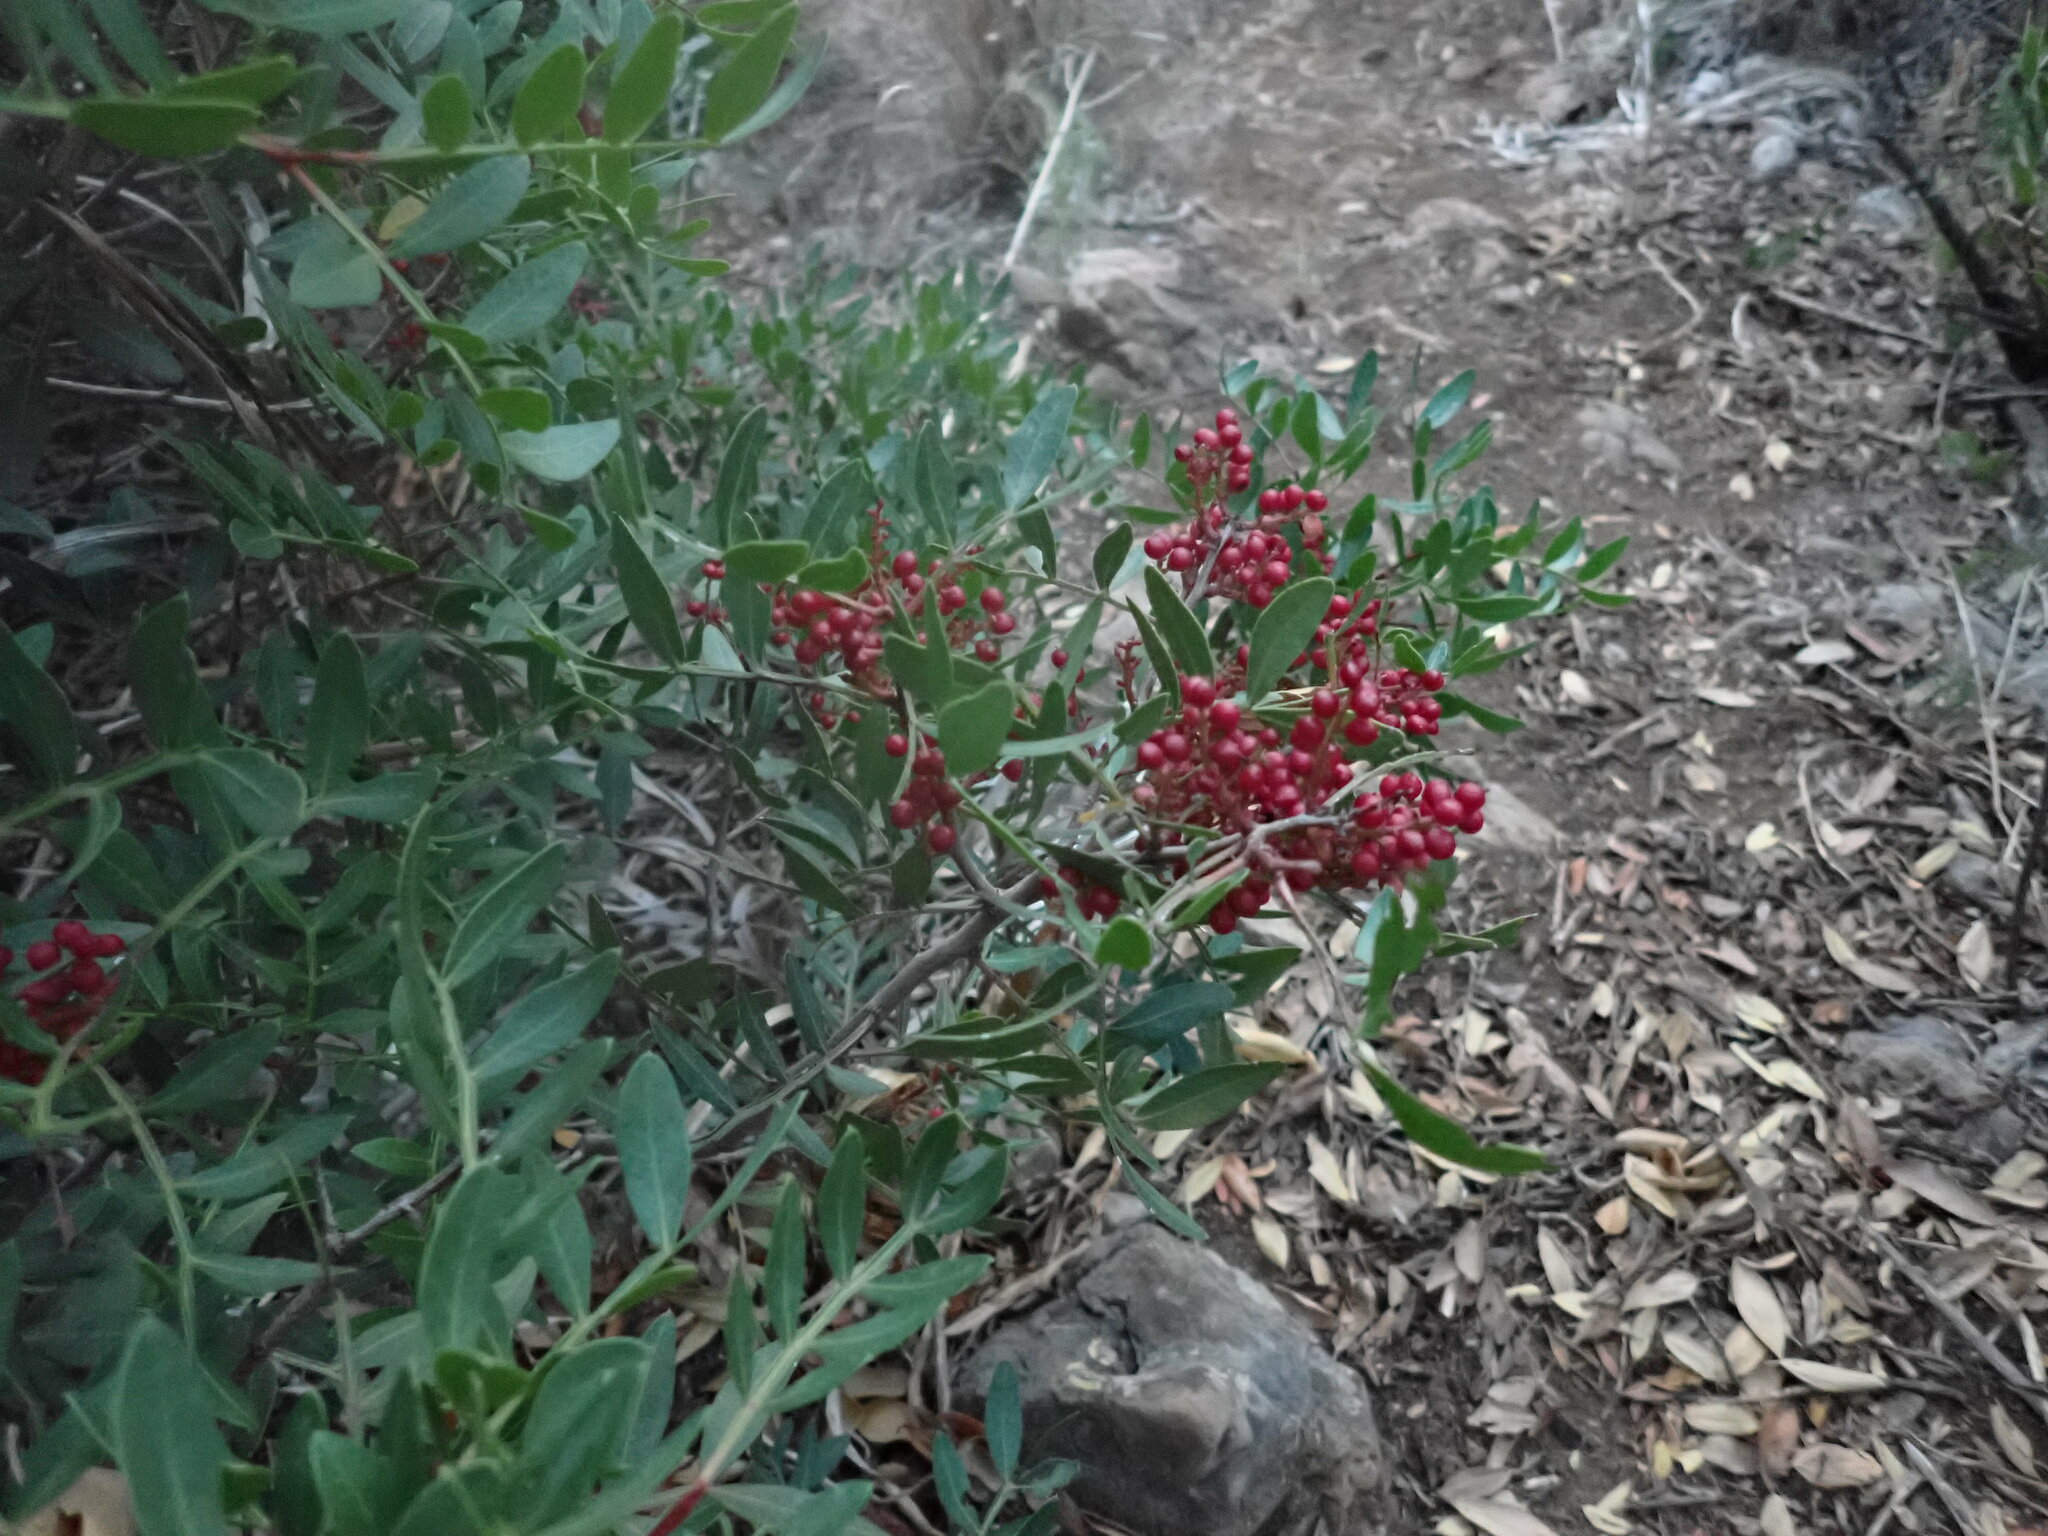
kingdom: Plantae
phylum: Tracheophyta
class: Magnoliopsida
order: Sapindales
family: Anacardiaceae
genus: Pistacia
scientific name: Pistacia lentiscus
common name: Lentisk
